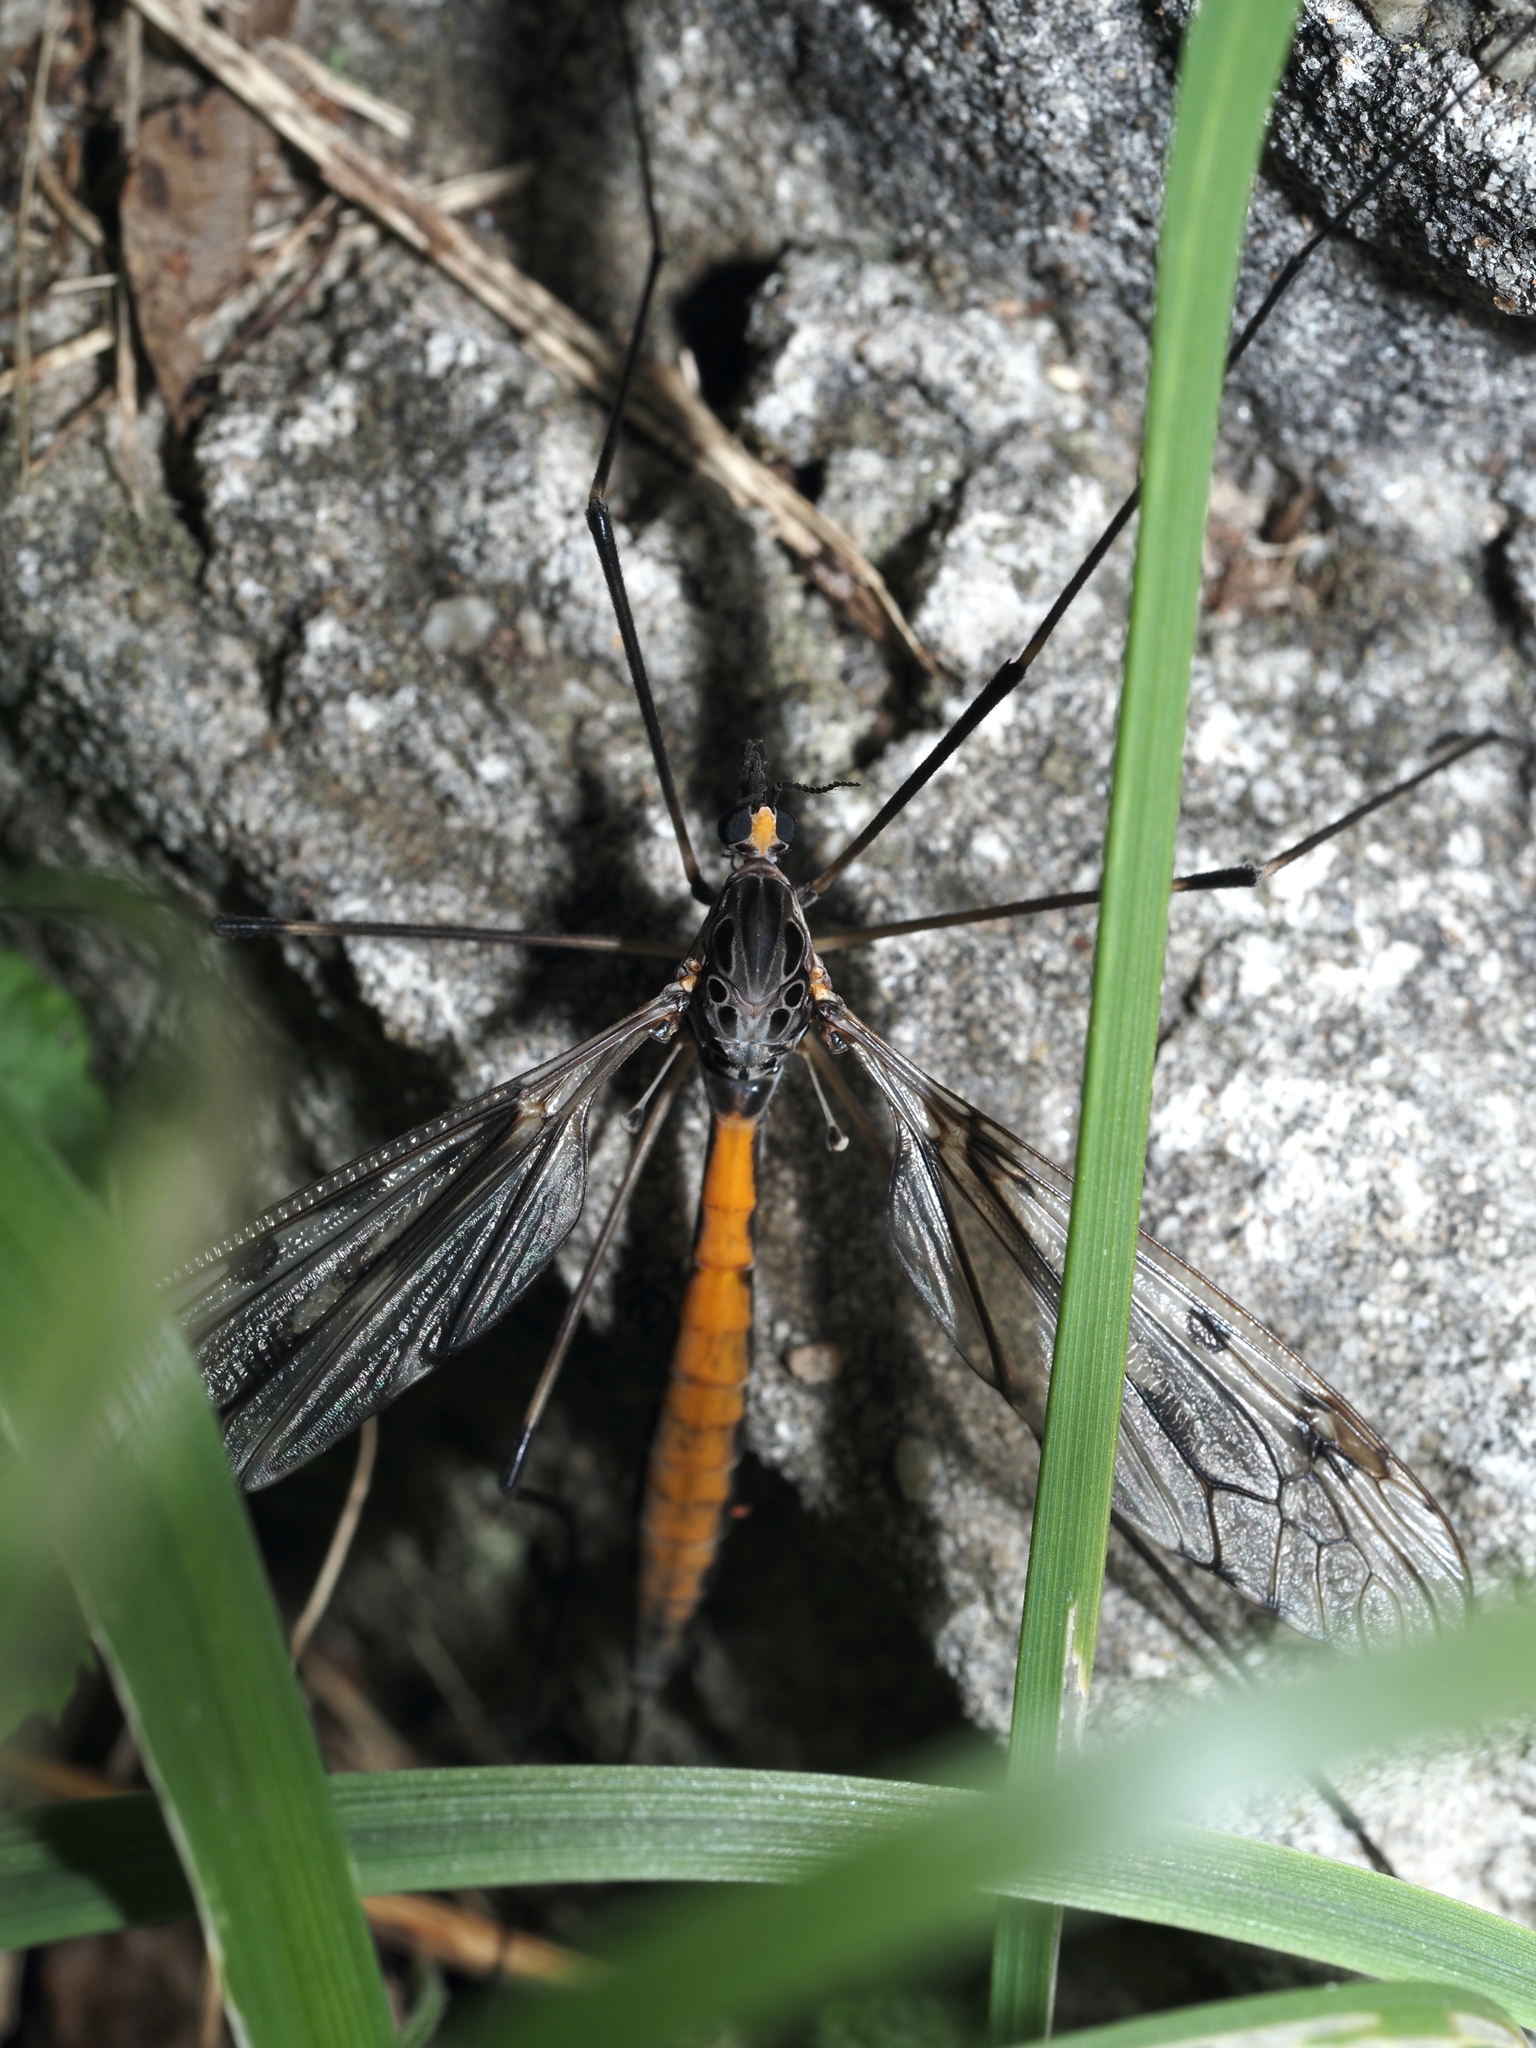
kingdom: Animalia
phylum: Arthropoda
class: Insecta
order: Diptera
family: Tipulidae
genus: Tipula
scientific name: Tipula abdominalis
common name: Giant crane fly
